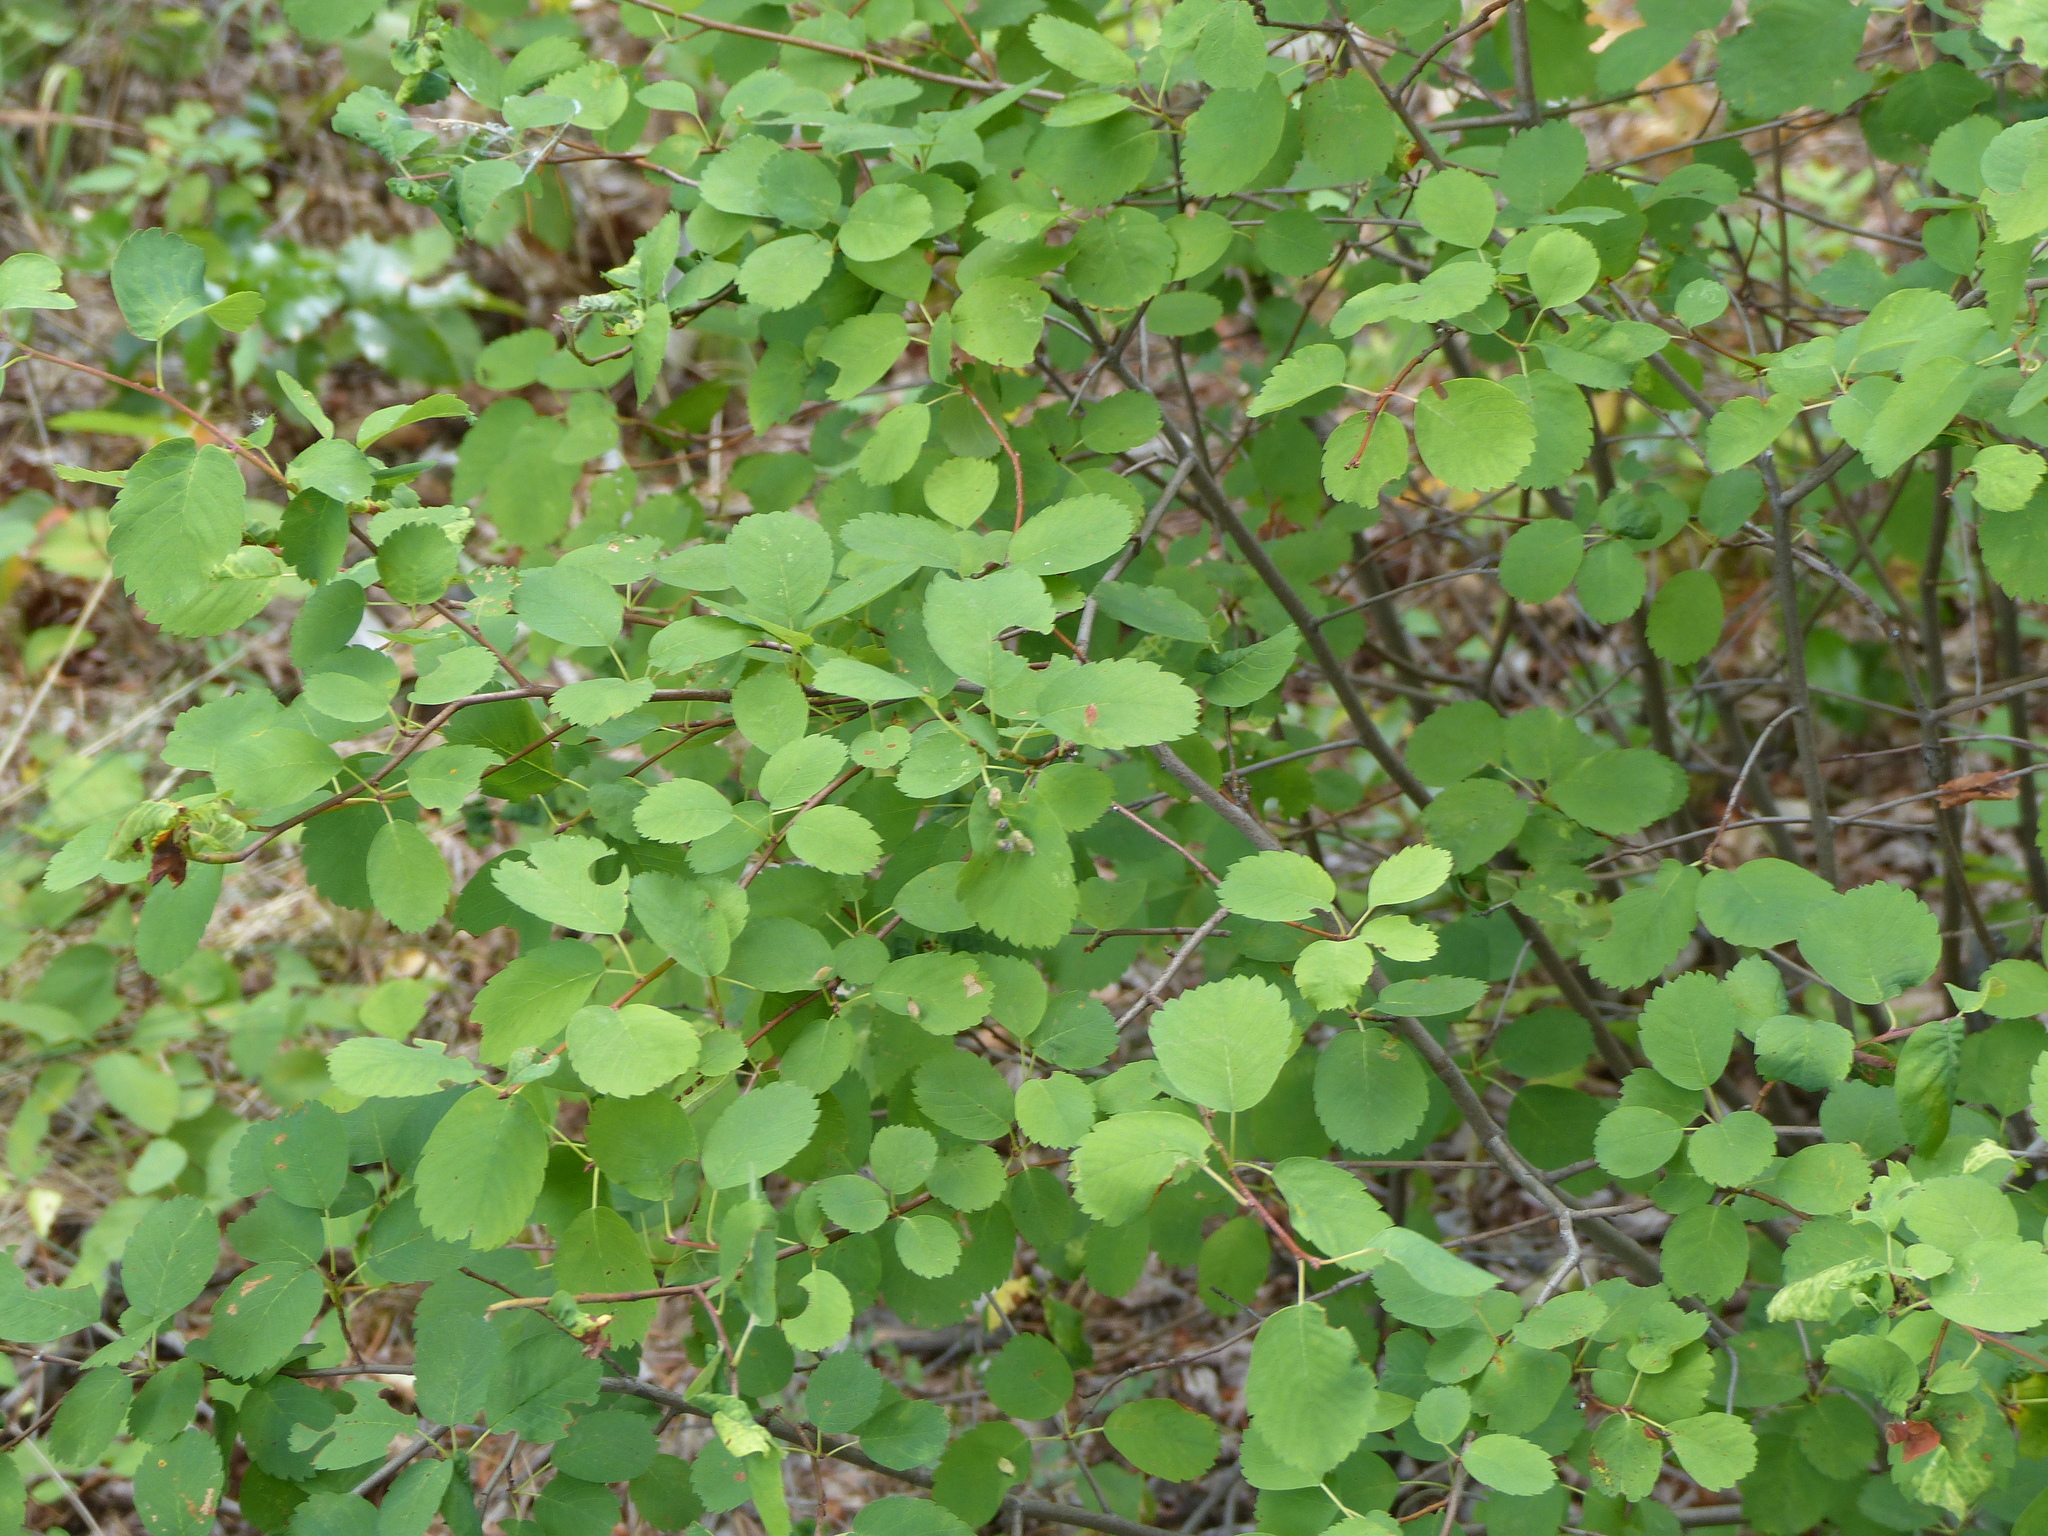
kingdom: Plantae
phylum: Tracheophyta
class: Magnoliopsida
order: Rosales
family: Rosaceae
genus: Amelanchier
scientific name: Amelanchier alnifolia
